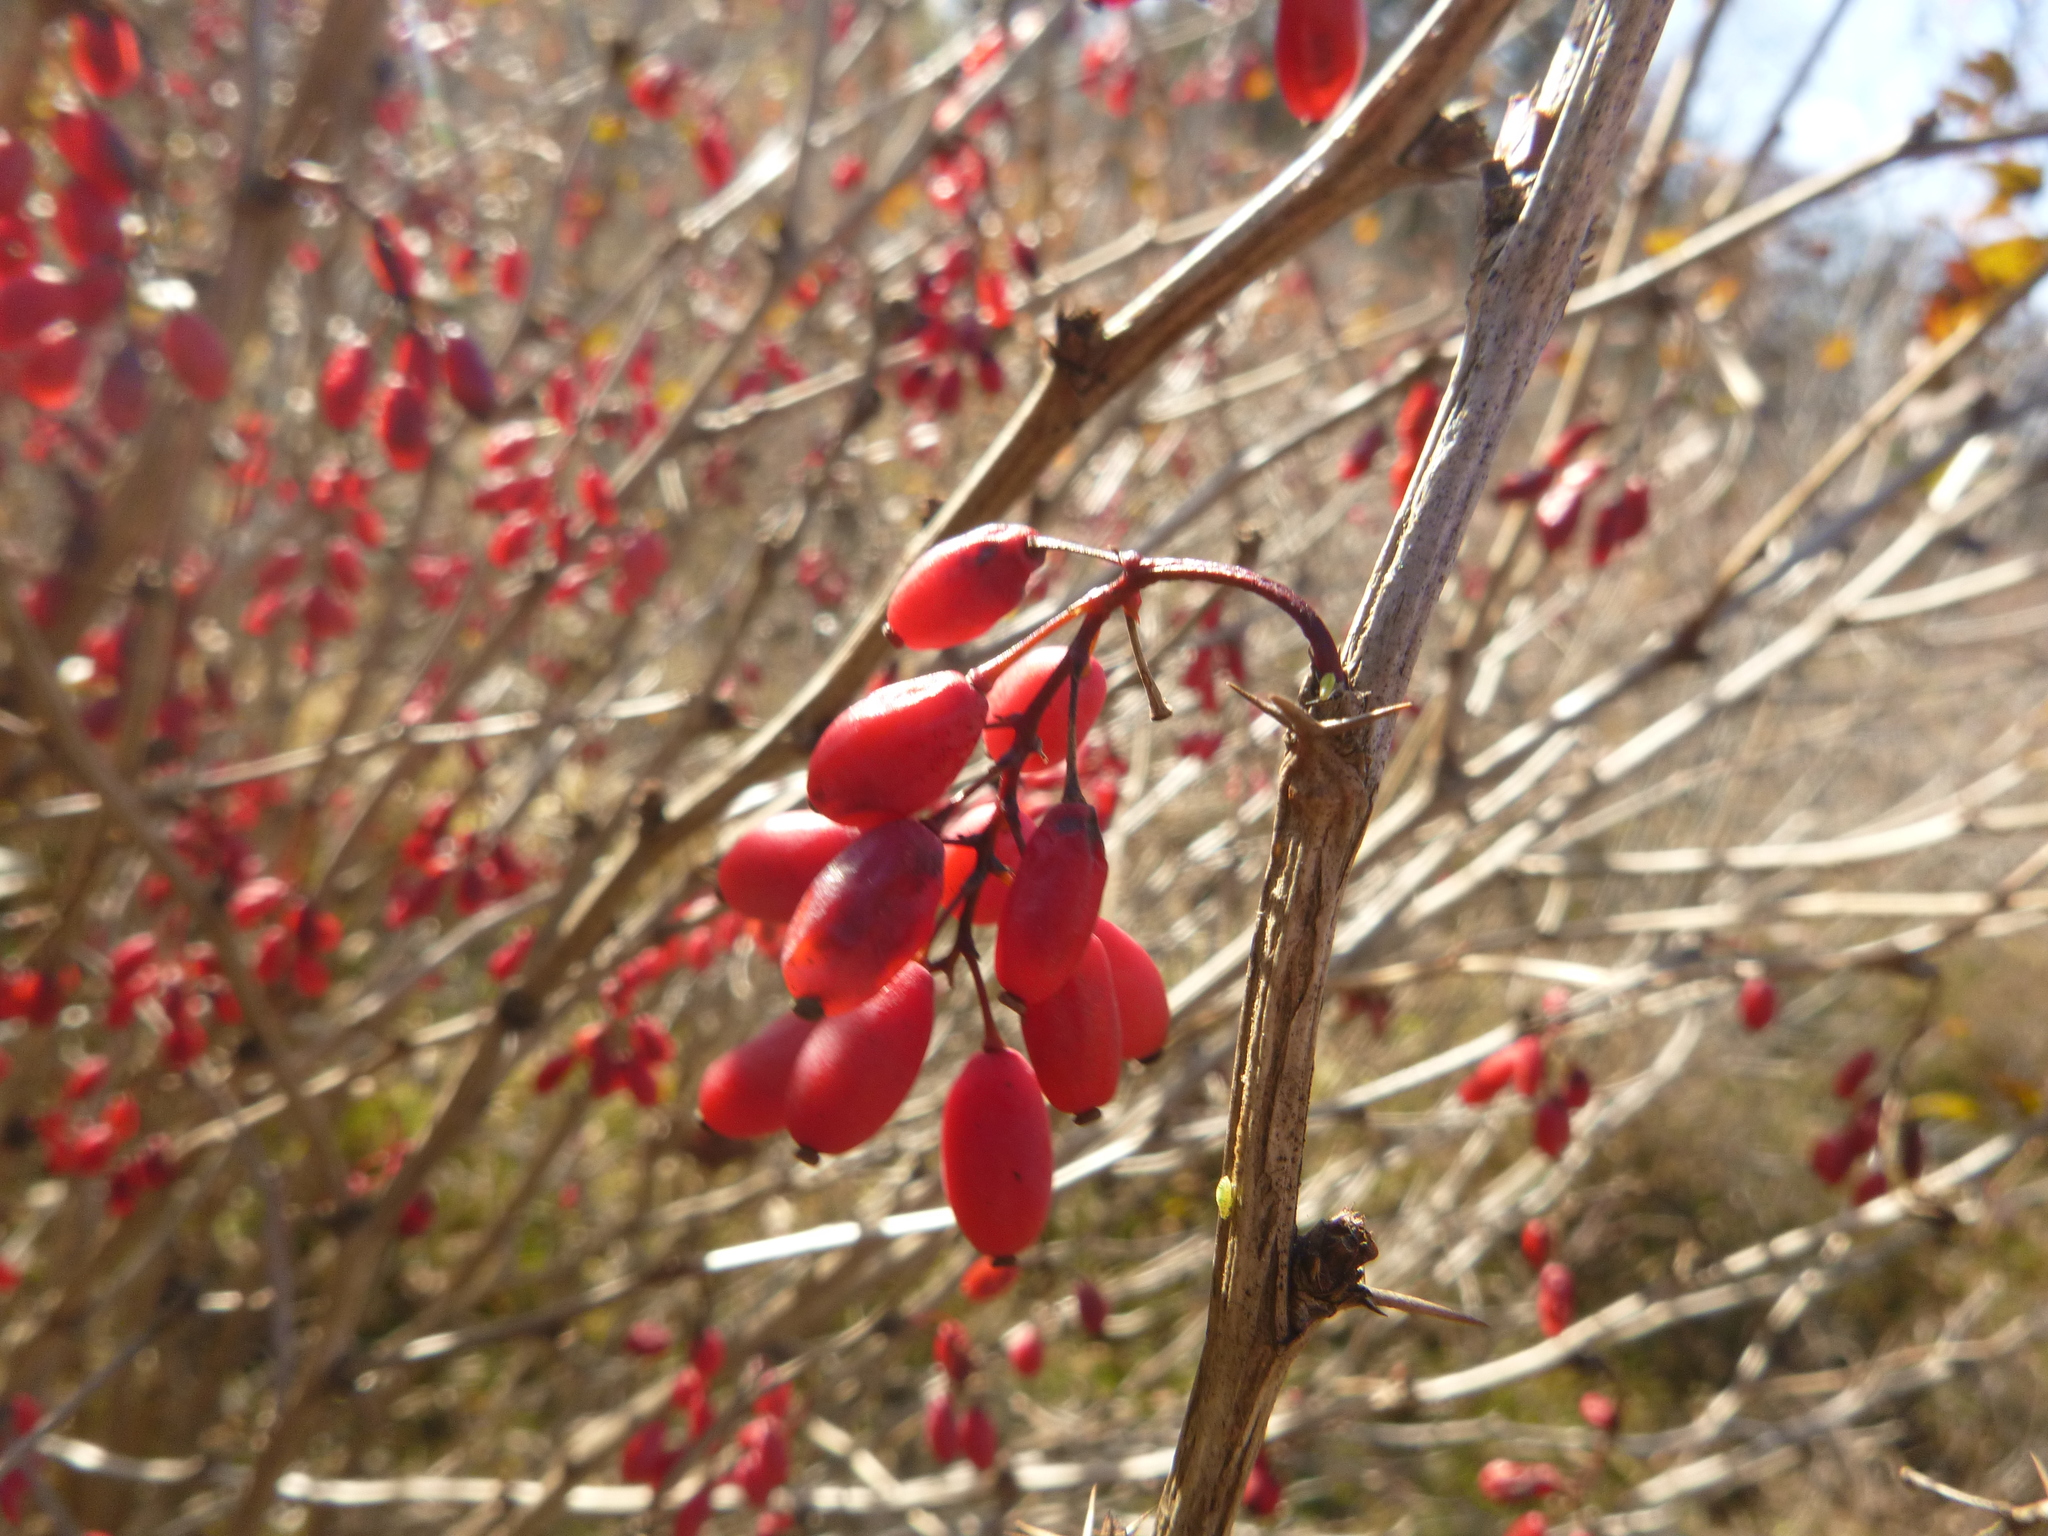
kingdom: Plantae
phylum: Tracheophyta
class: Magnoliopsida
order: Ranunculales
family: Berberidaceae
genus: Berberis
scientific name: Berberis vulgaris
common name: Barberry
